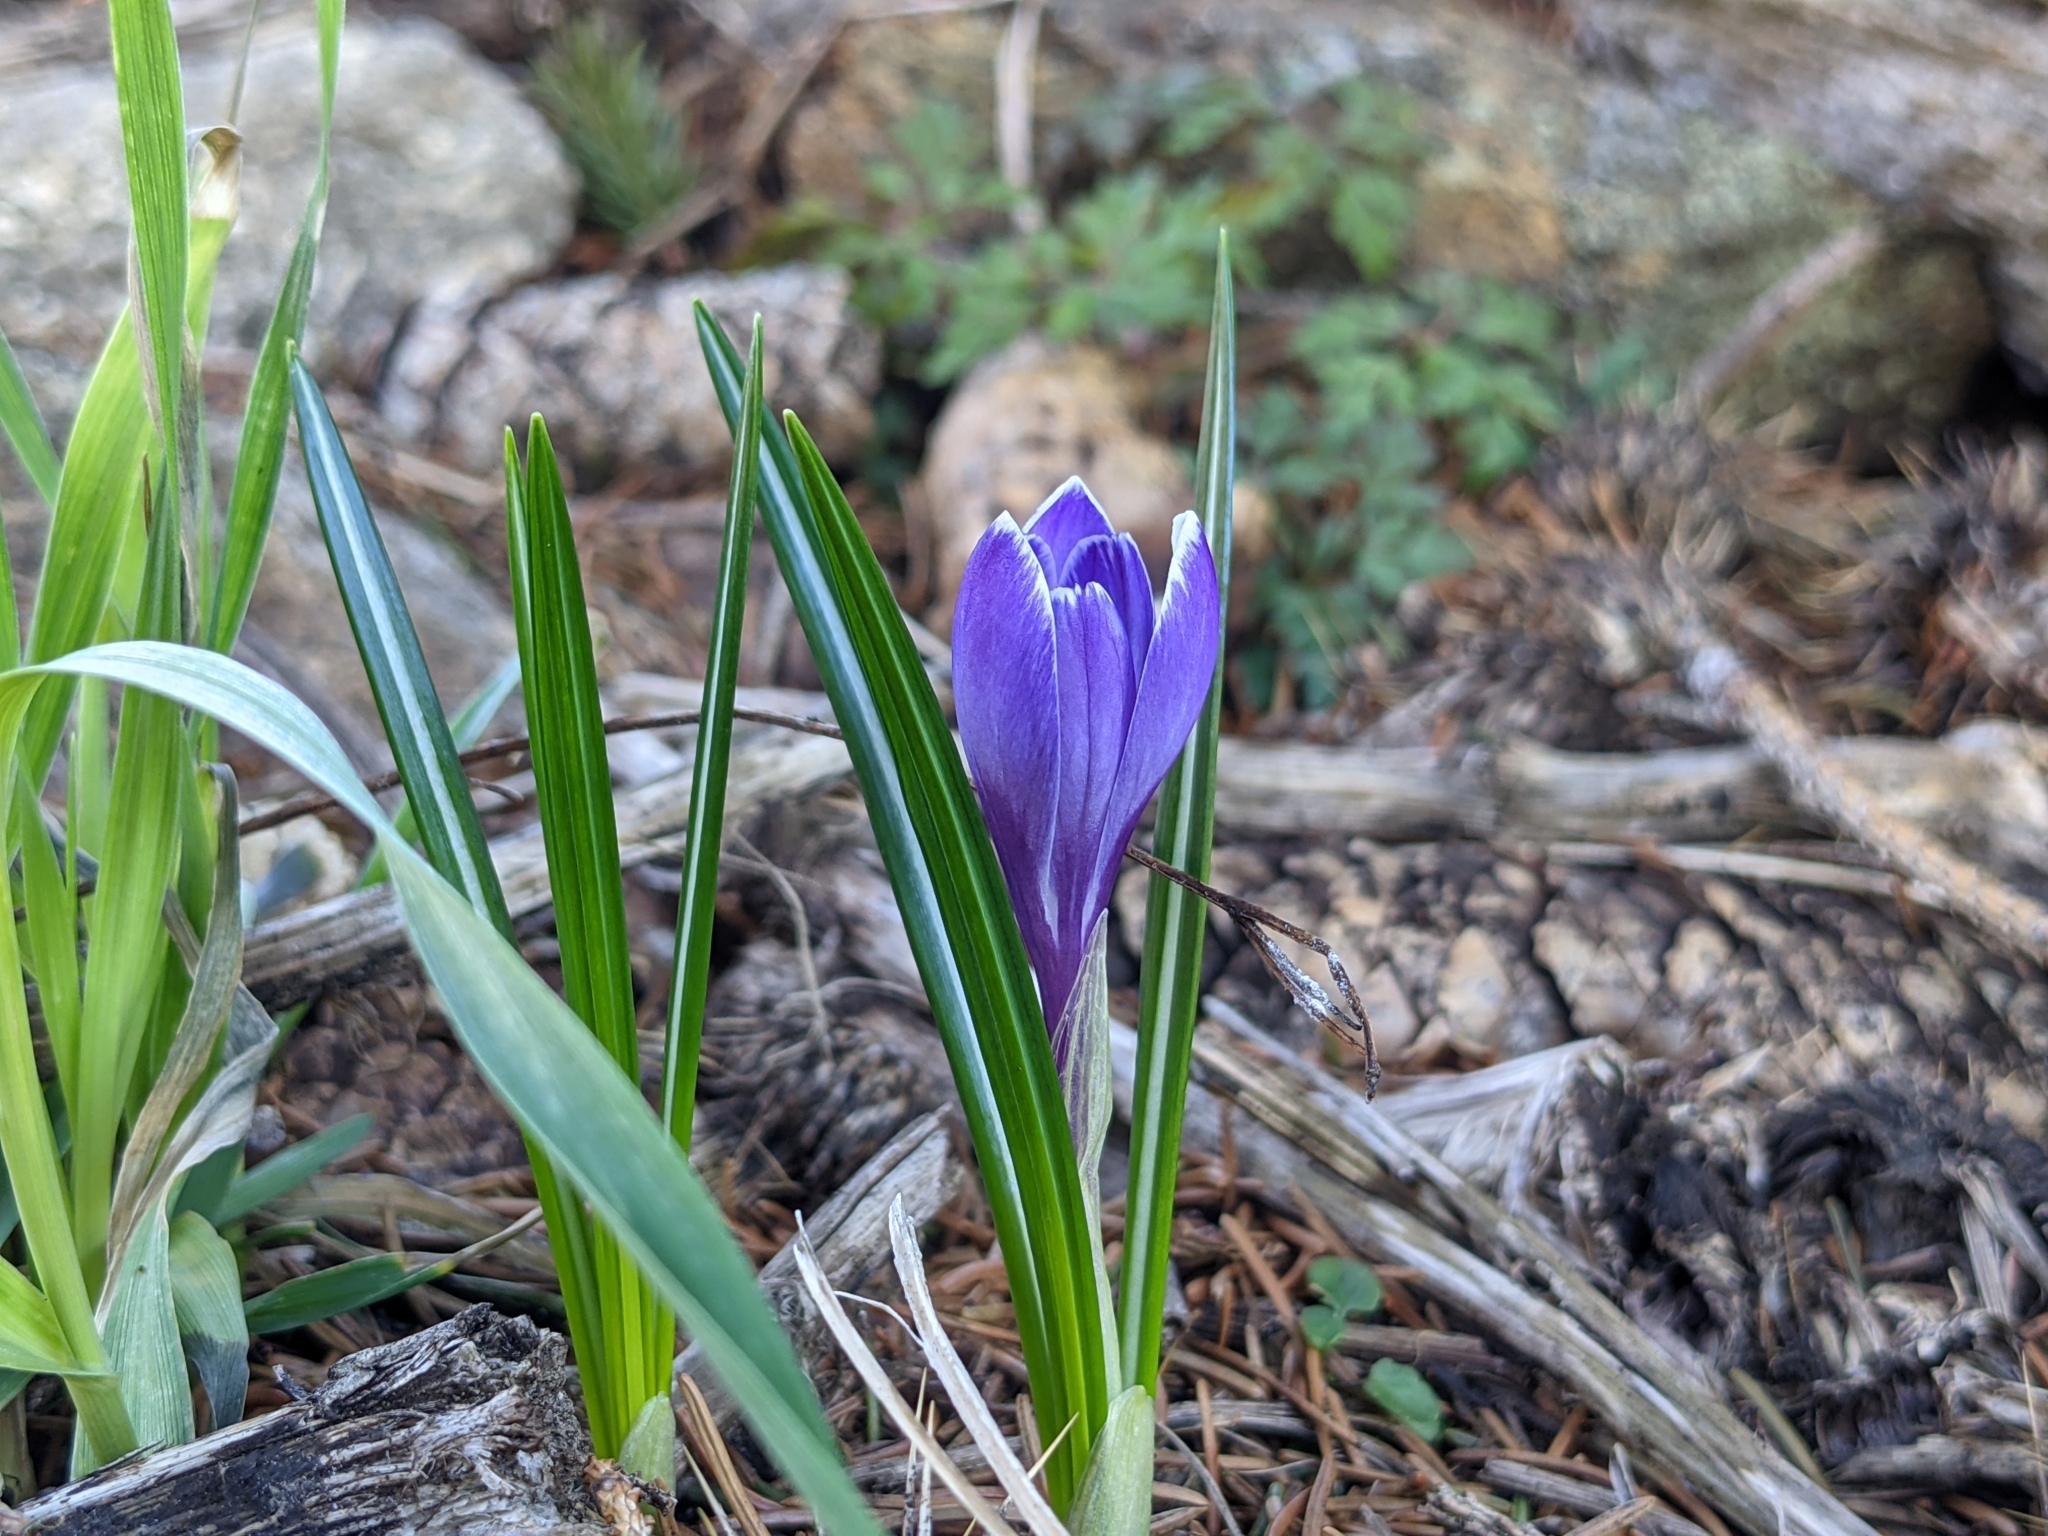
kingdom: Plantae
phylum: Tracheophyta
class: Liliopsida
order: Asparagales
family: Iridaceae
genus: Crocus
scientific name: Crocus vernus
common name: Spring crocus
